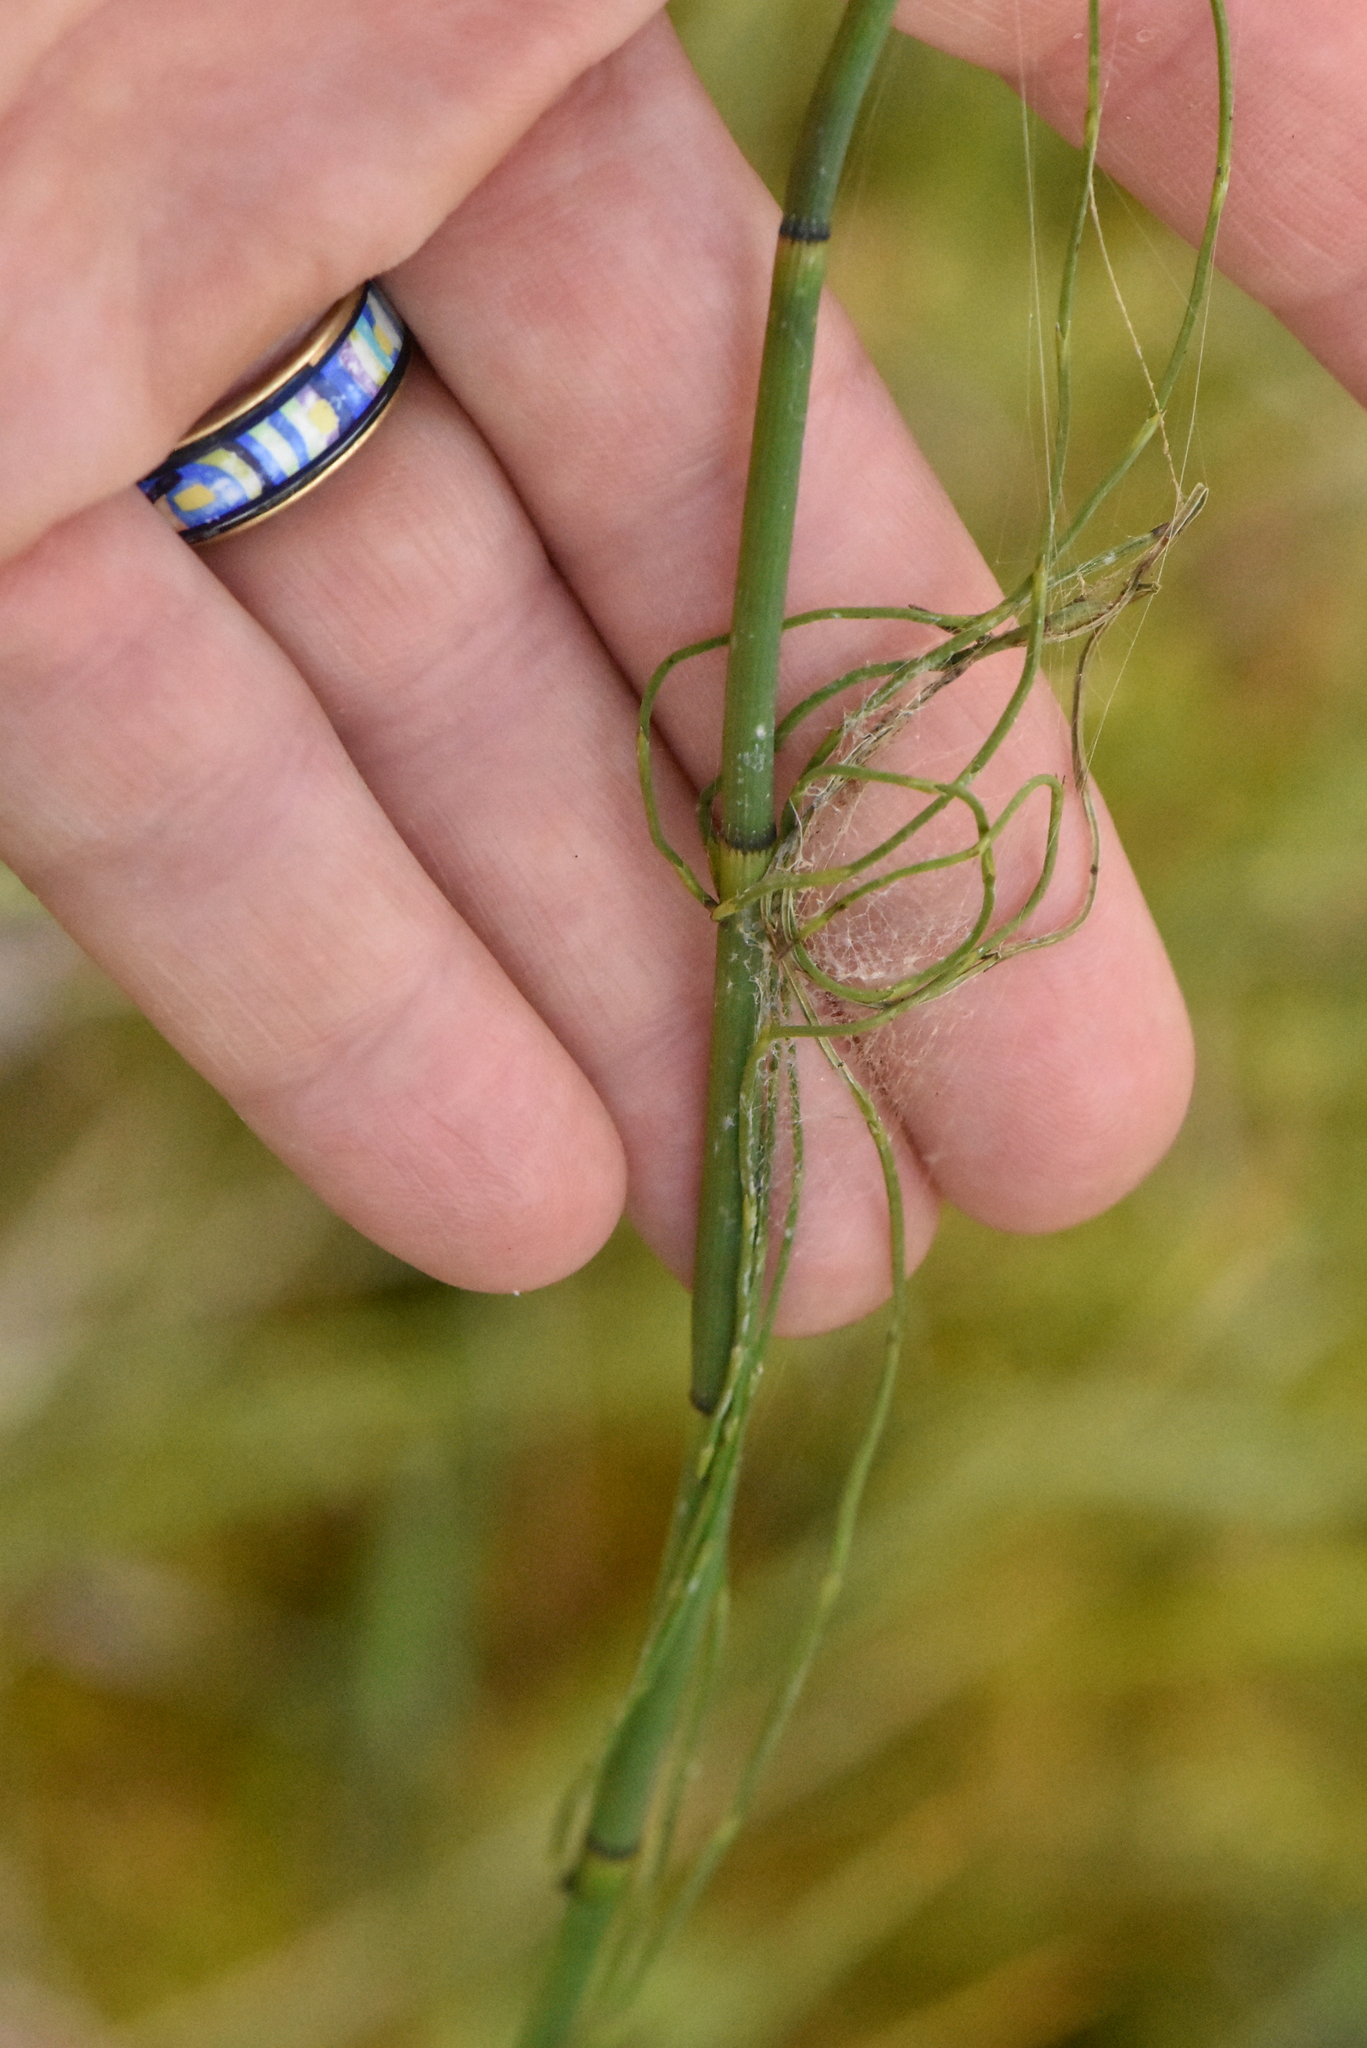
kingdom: Plantae
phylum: Tracheophyta
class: Polypodiopsida
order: Equisetales
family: Equisetaceae
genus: Equisetum
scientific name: Equisetum fluviatile
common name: Water horsetail
